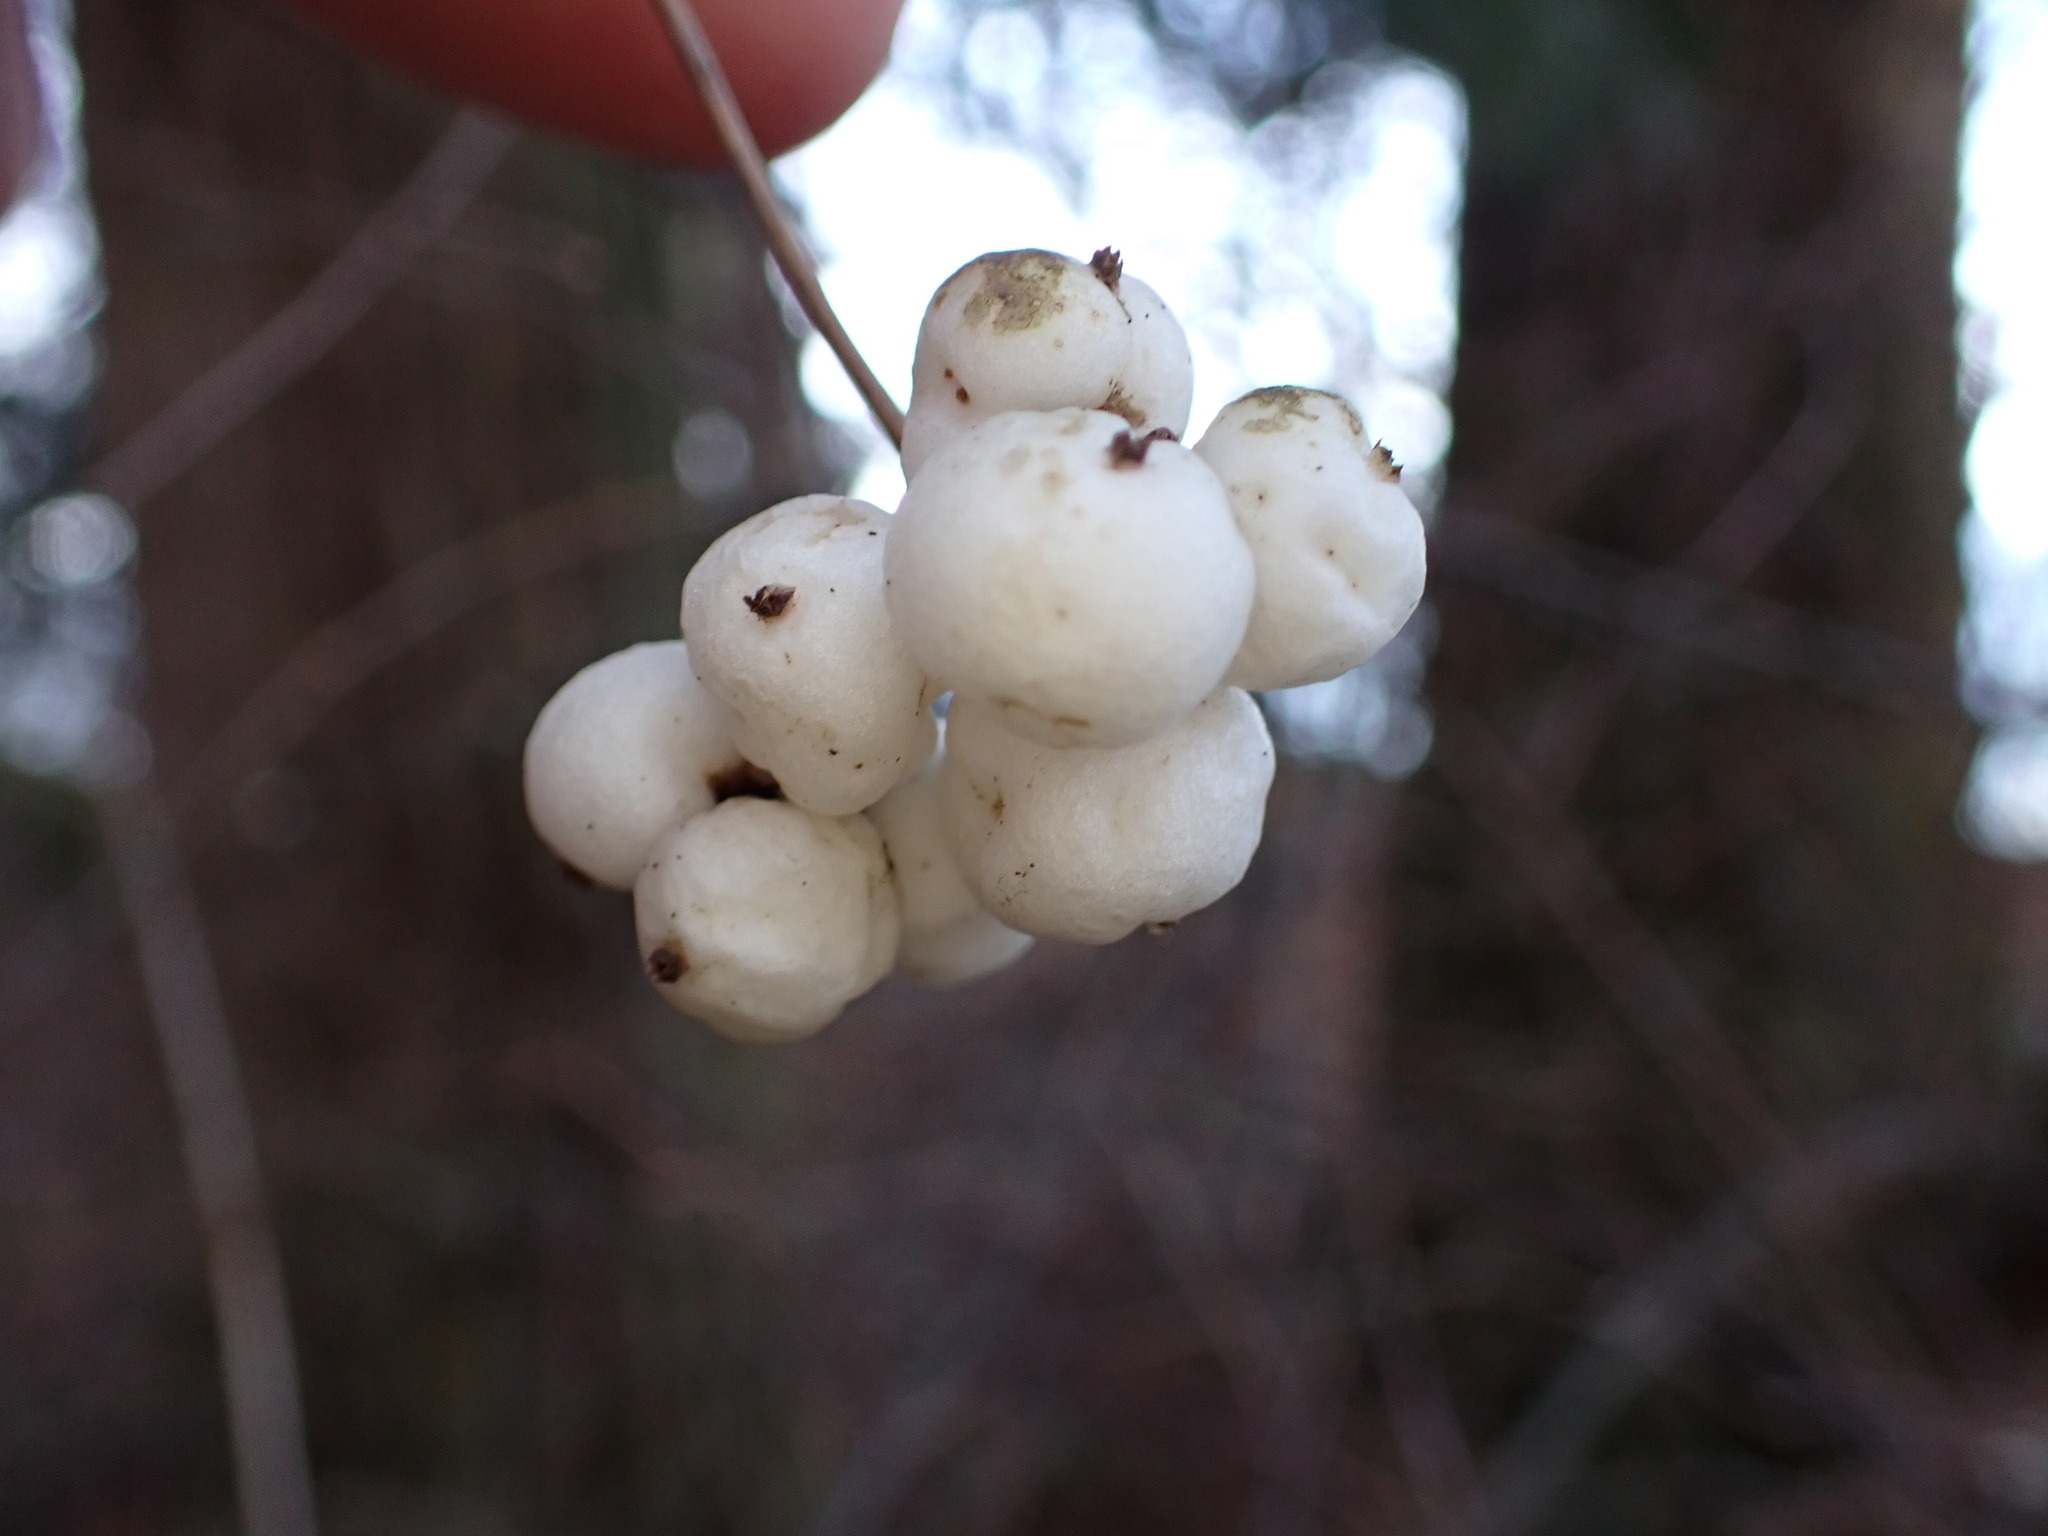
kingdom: Plantae
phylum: Tracheophyta
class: Magnoliopsida
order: Dipsacales
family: Caprifoliaceae
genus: Symphoricarpos
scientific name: Symphoricarpos albus
